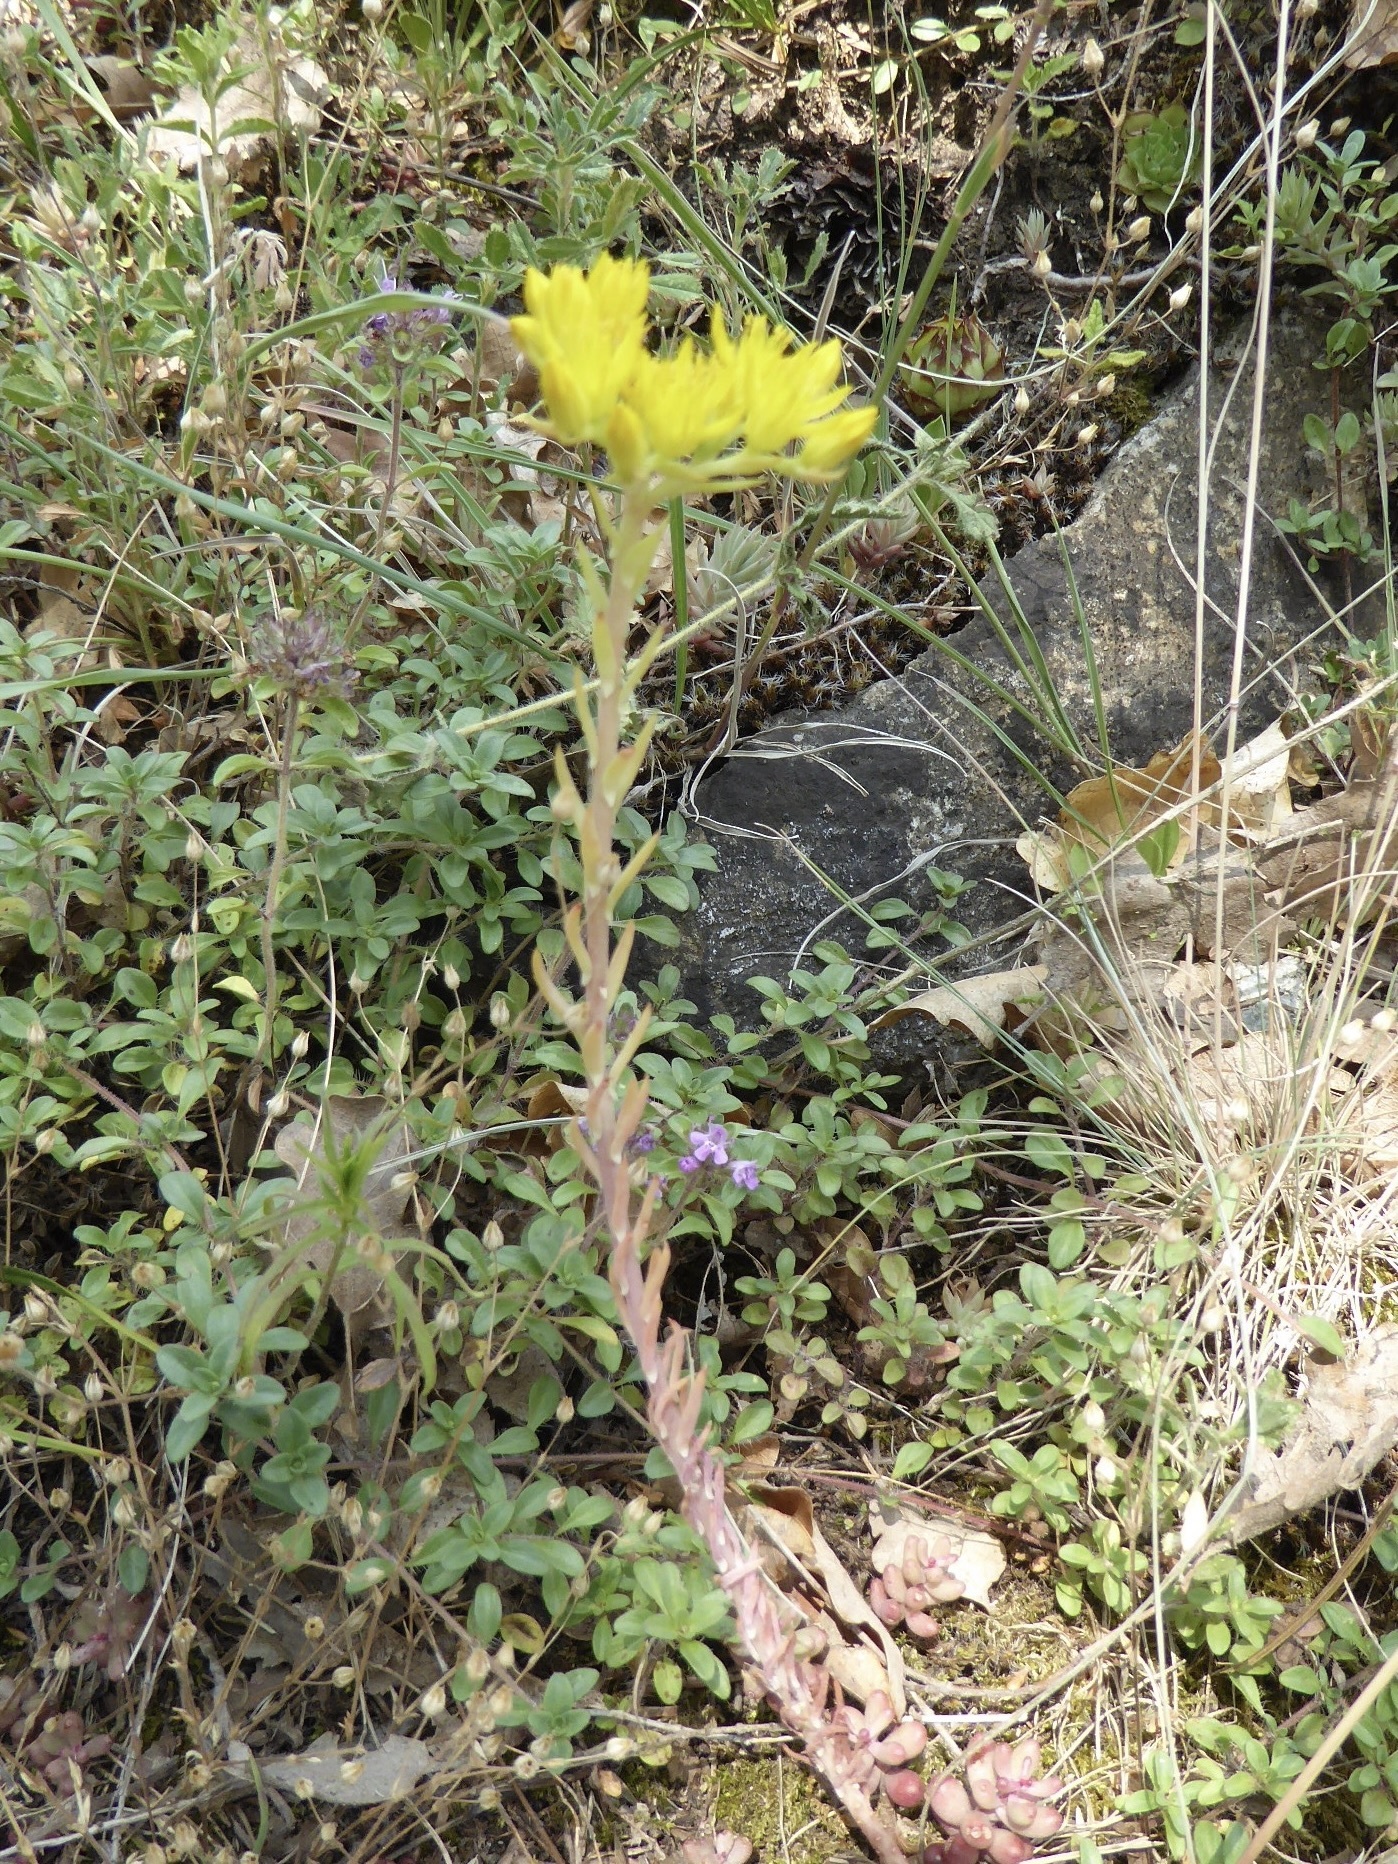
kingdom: Plantae
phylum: Tracheophyta
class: Magnoliopsida
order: Saxifragales
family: Crassulaceae
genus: Petrosedum
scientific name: Petrosedum montanum
